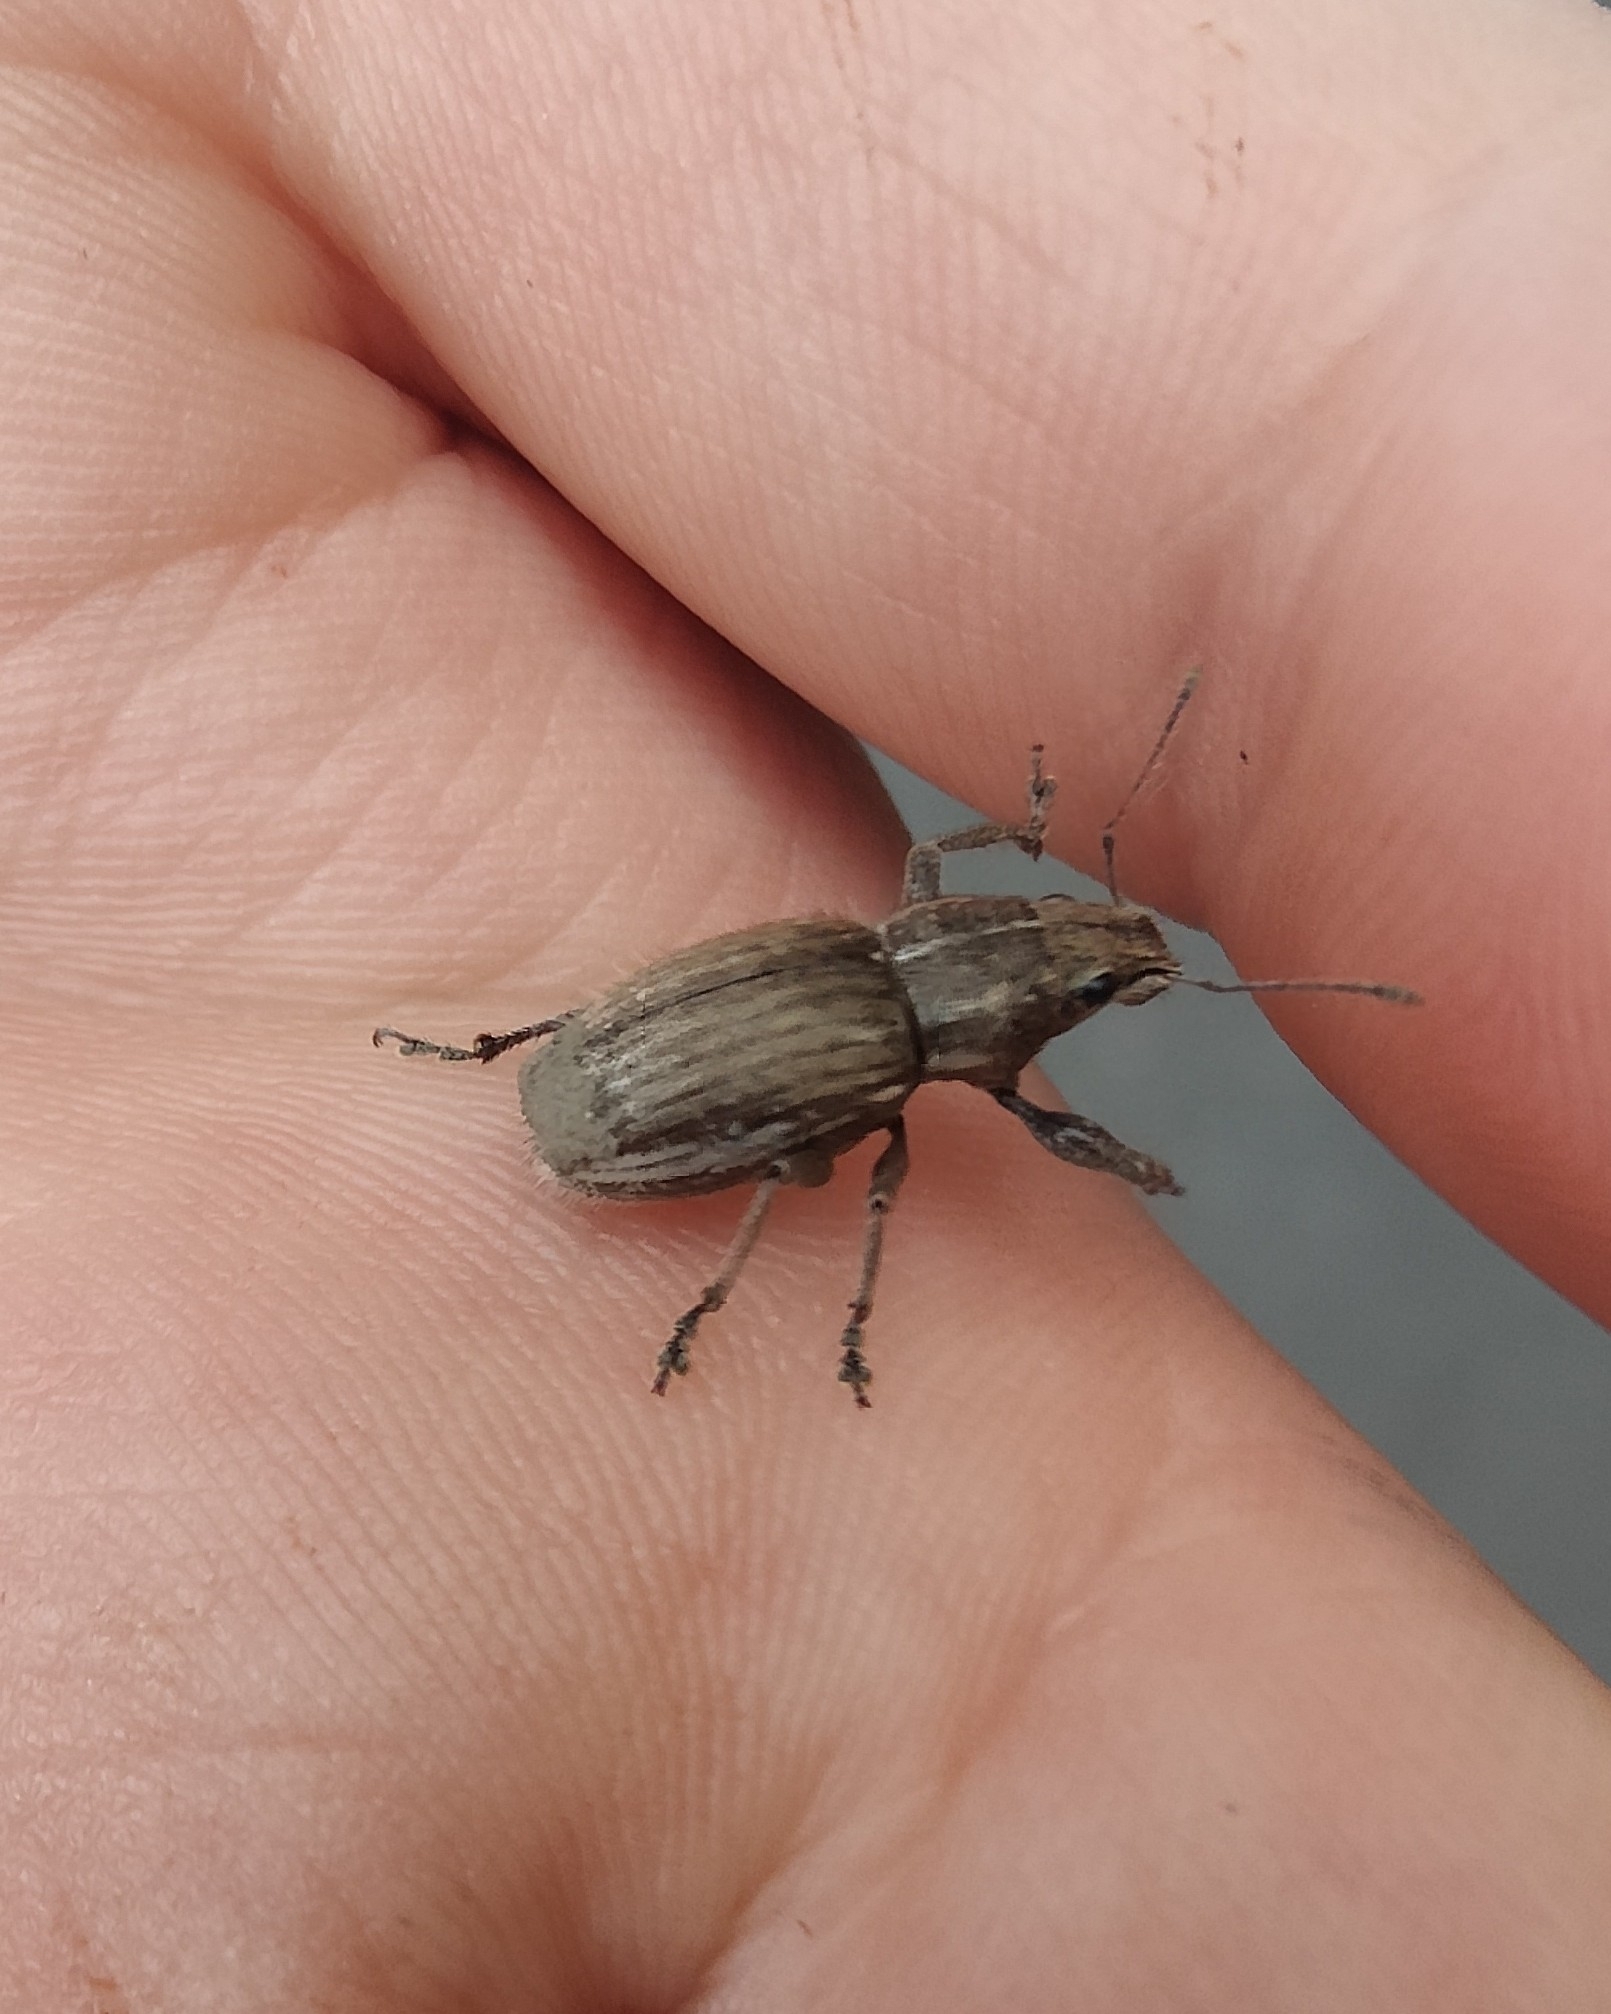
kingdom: Animalia
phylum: Arthropoda
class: Insecta
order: Coleoptera
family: Curculionidae
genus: Naupactus
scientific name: Naupactus leucoloma
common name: Whitefringed beetle
